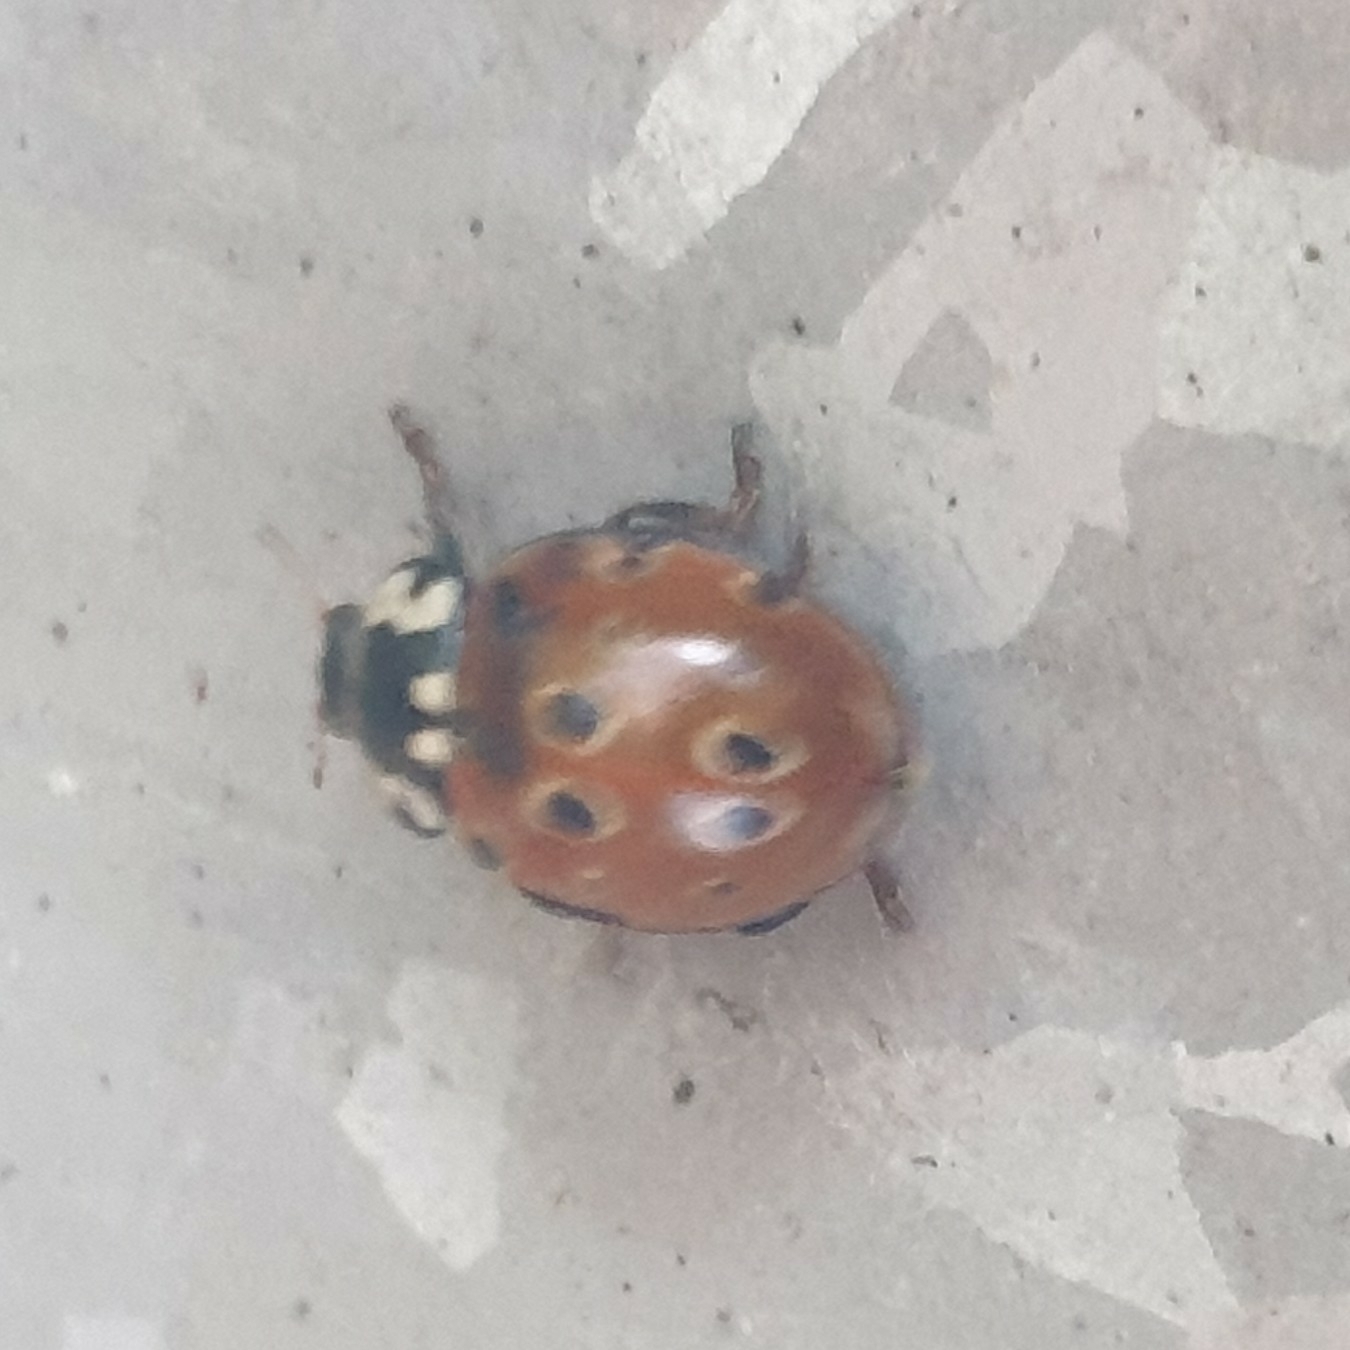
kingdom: Animalia
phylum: Arthropoda
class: Insecta
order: Coleoptera
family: Coccinellidae
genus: Anatis
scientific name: Anatis ocellata
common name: Eyed ladybird
